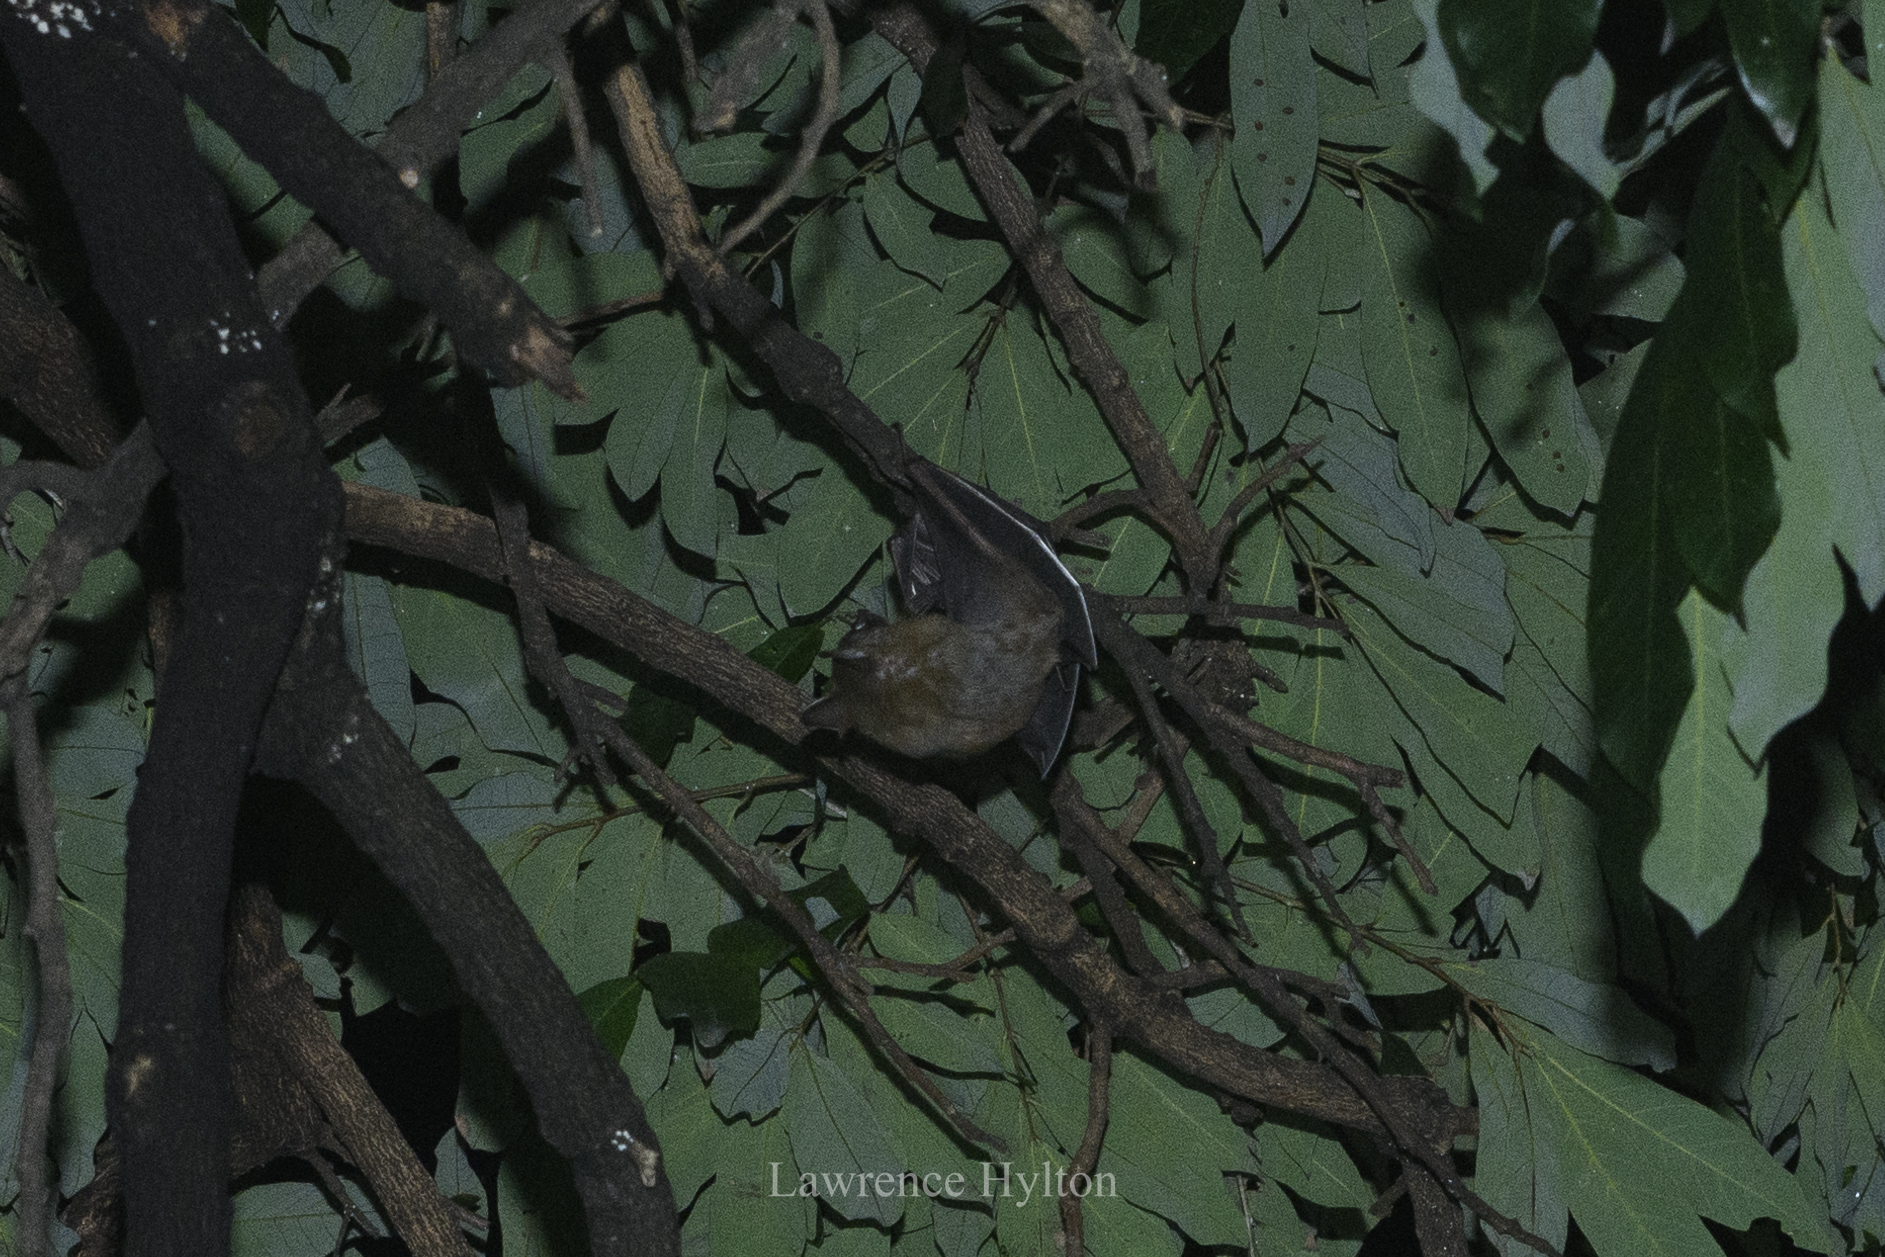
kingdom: Animalia
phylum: Chordata
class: Mammalia
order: Chiroptera
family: Pteropodidae
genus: Cynopterus
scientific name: Cynopterus sphinx
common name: Greater short-nosed fruit bat
